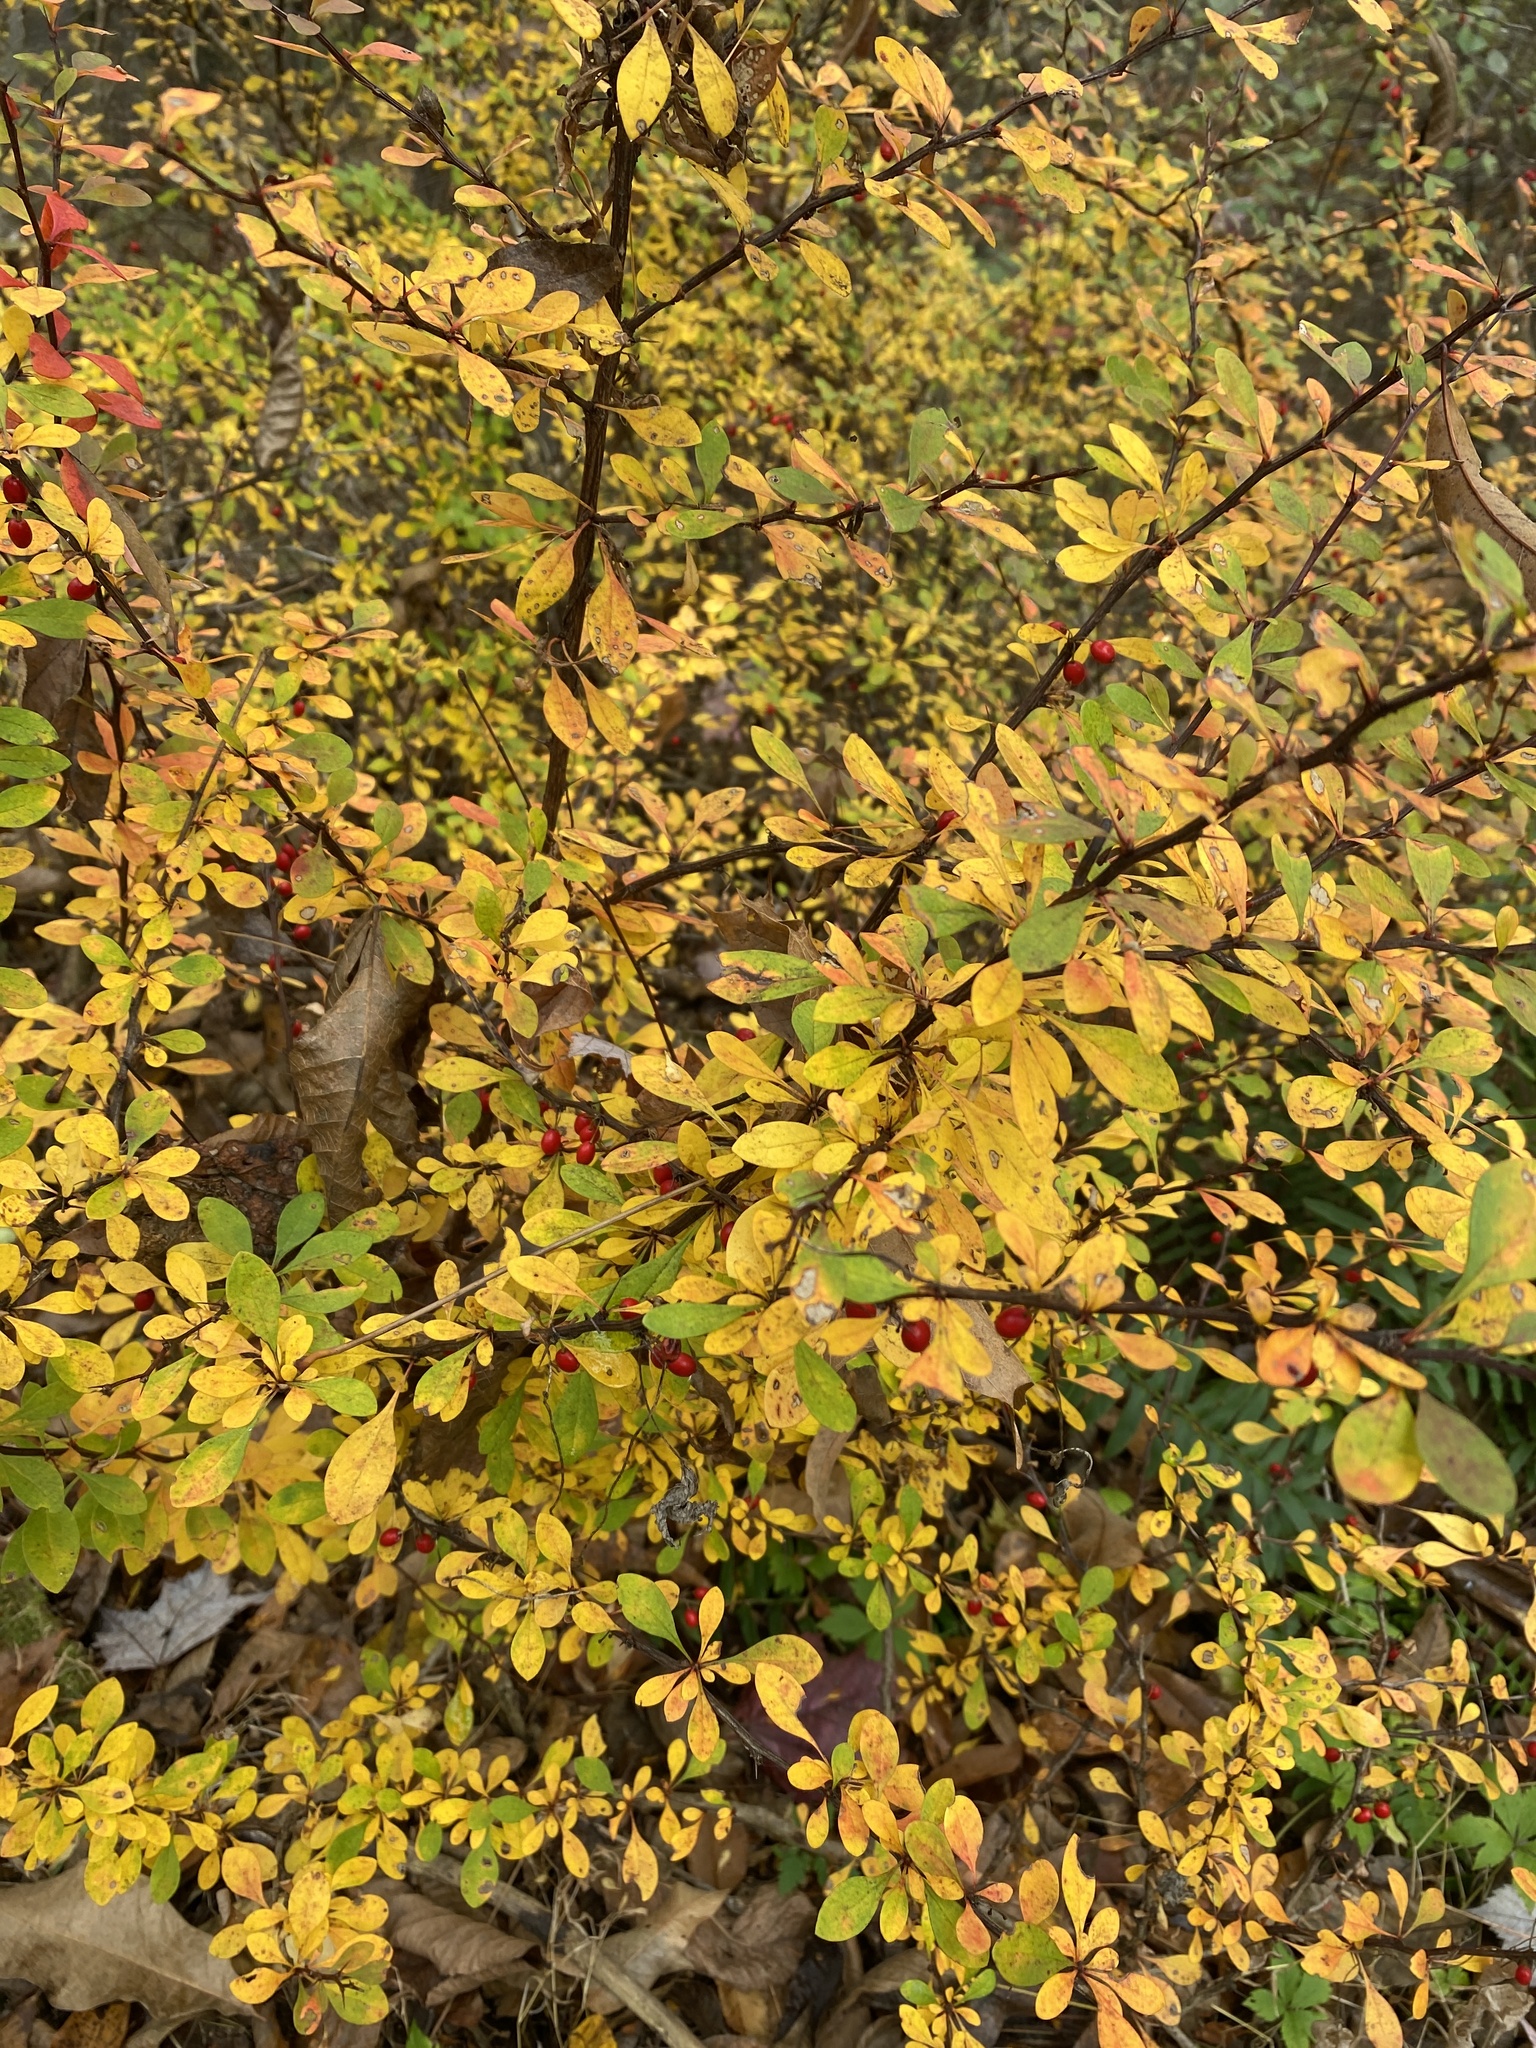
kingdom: Plantae
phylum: Tracheophyta
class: Magnoliopsida
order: Ranunculales
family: Berberidaceae
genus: Berberis
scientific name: Berberis thunbergii
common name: Japanese barberry
